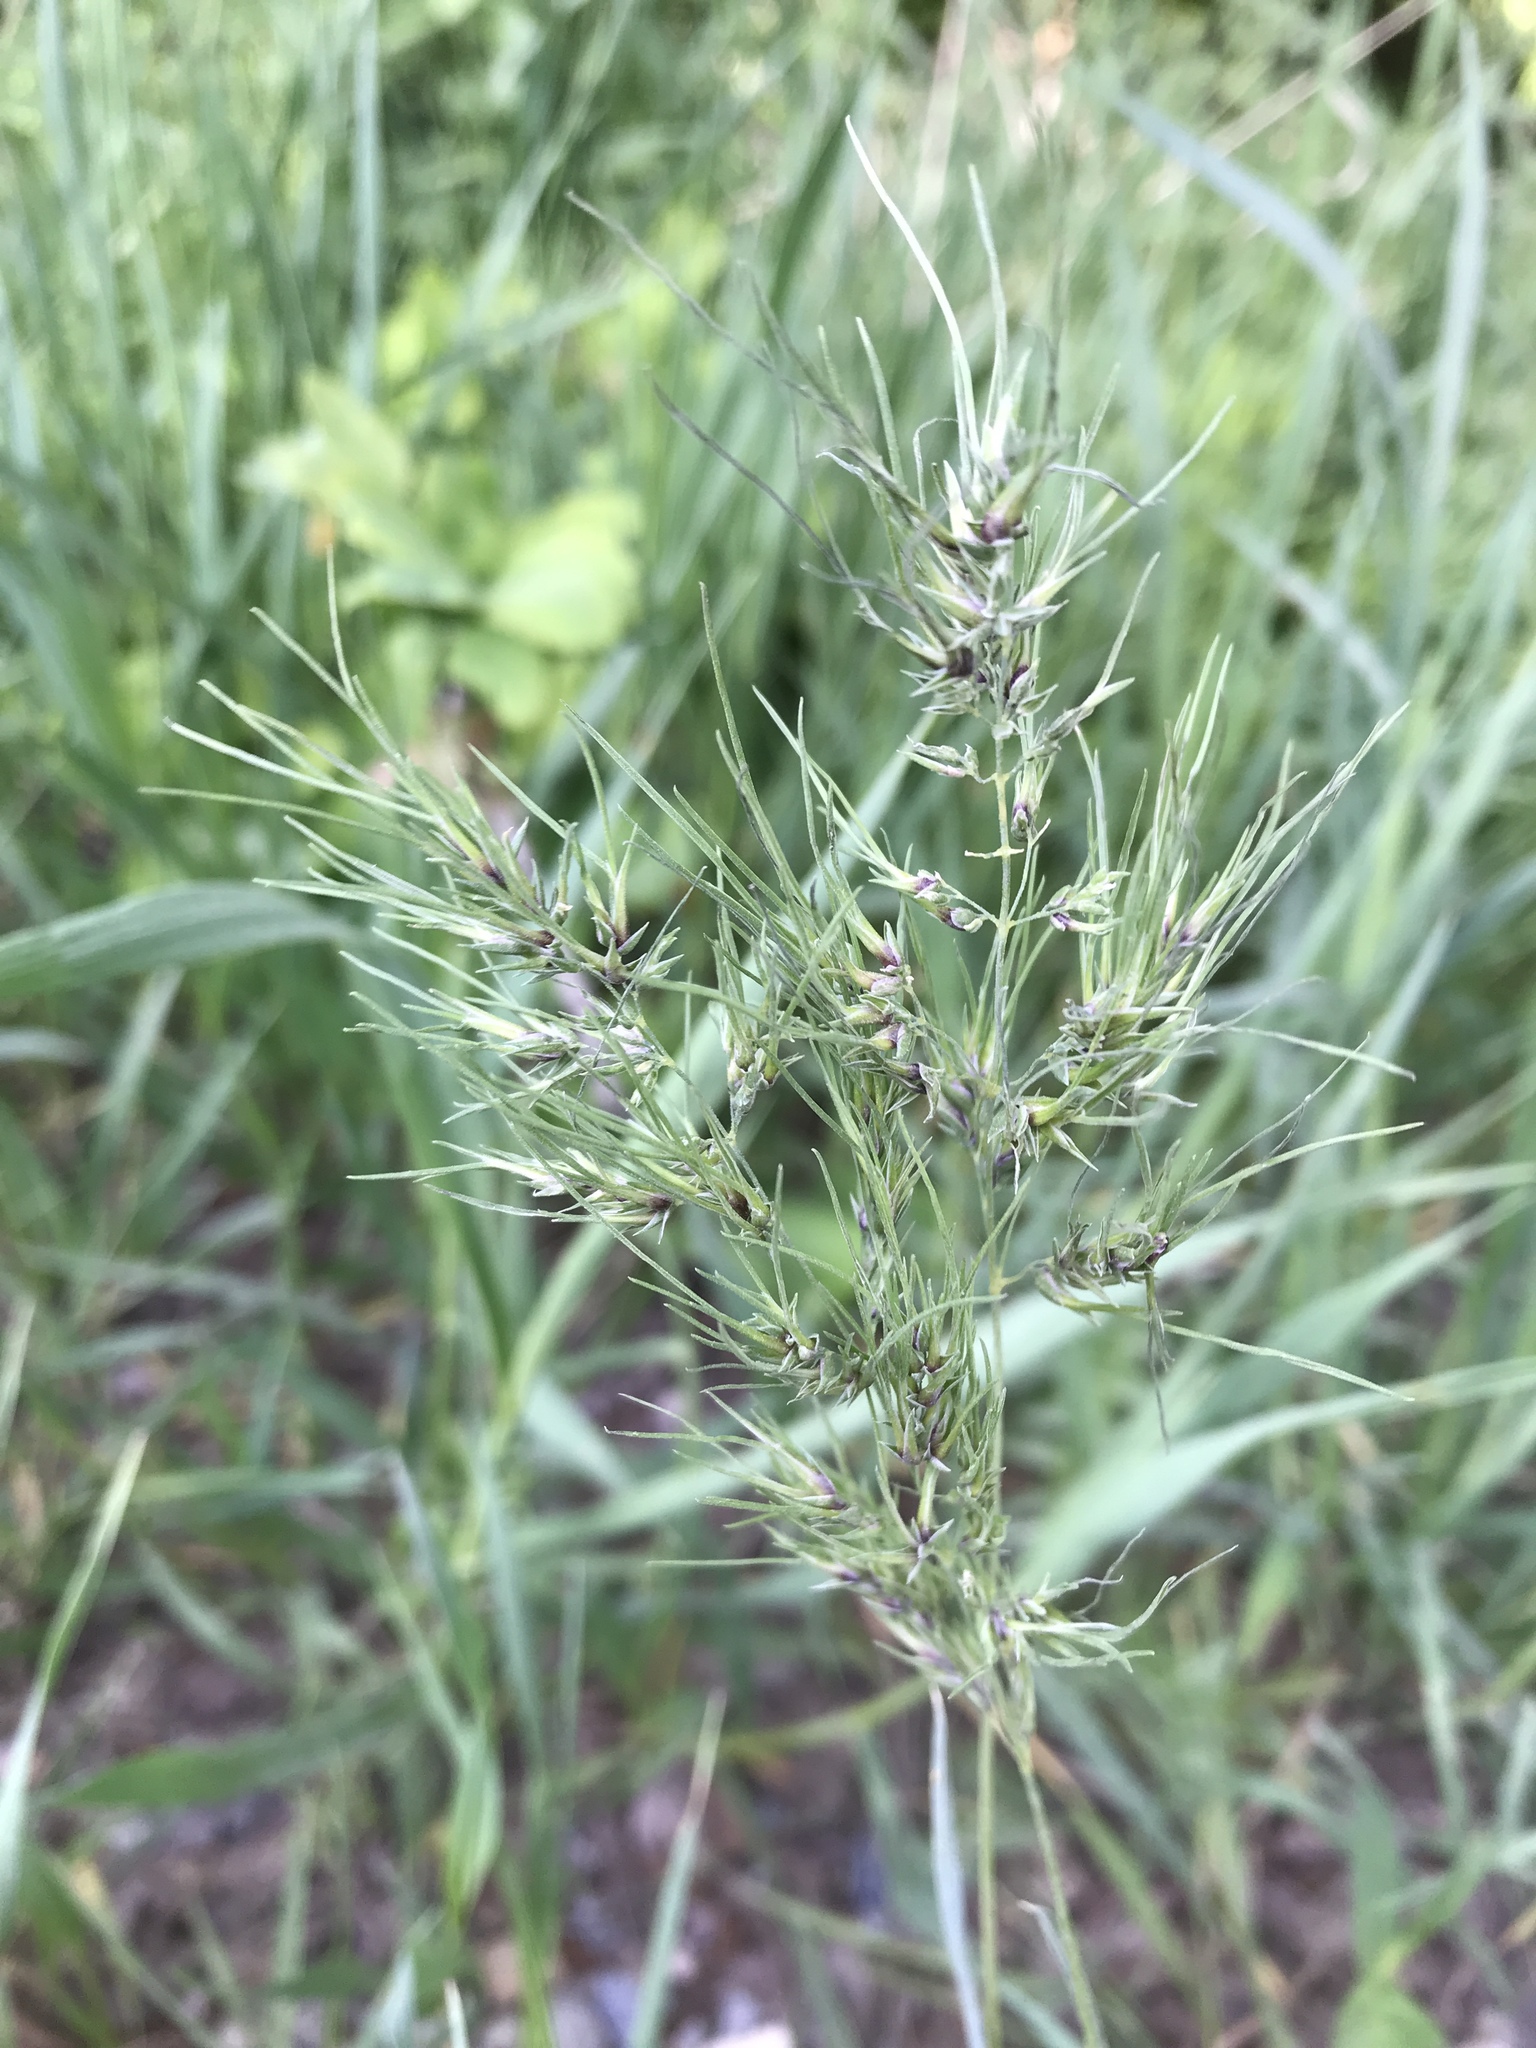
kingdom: Plantae
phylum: Tracheophyta
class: Liliopsida
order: Poales
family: Poaceae
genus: Poa
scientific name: Poa bulbosa
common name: Bulbous bluegrass
